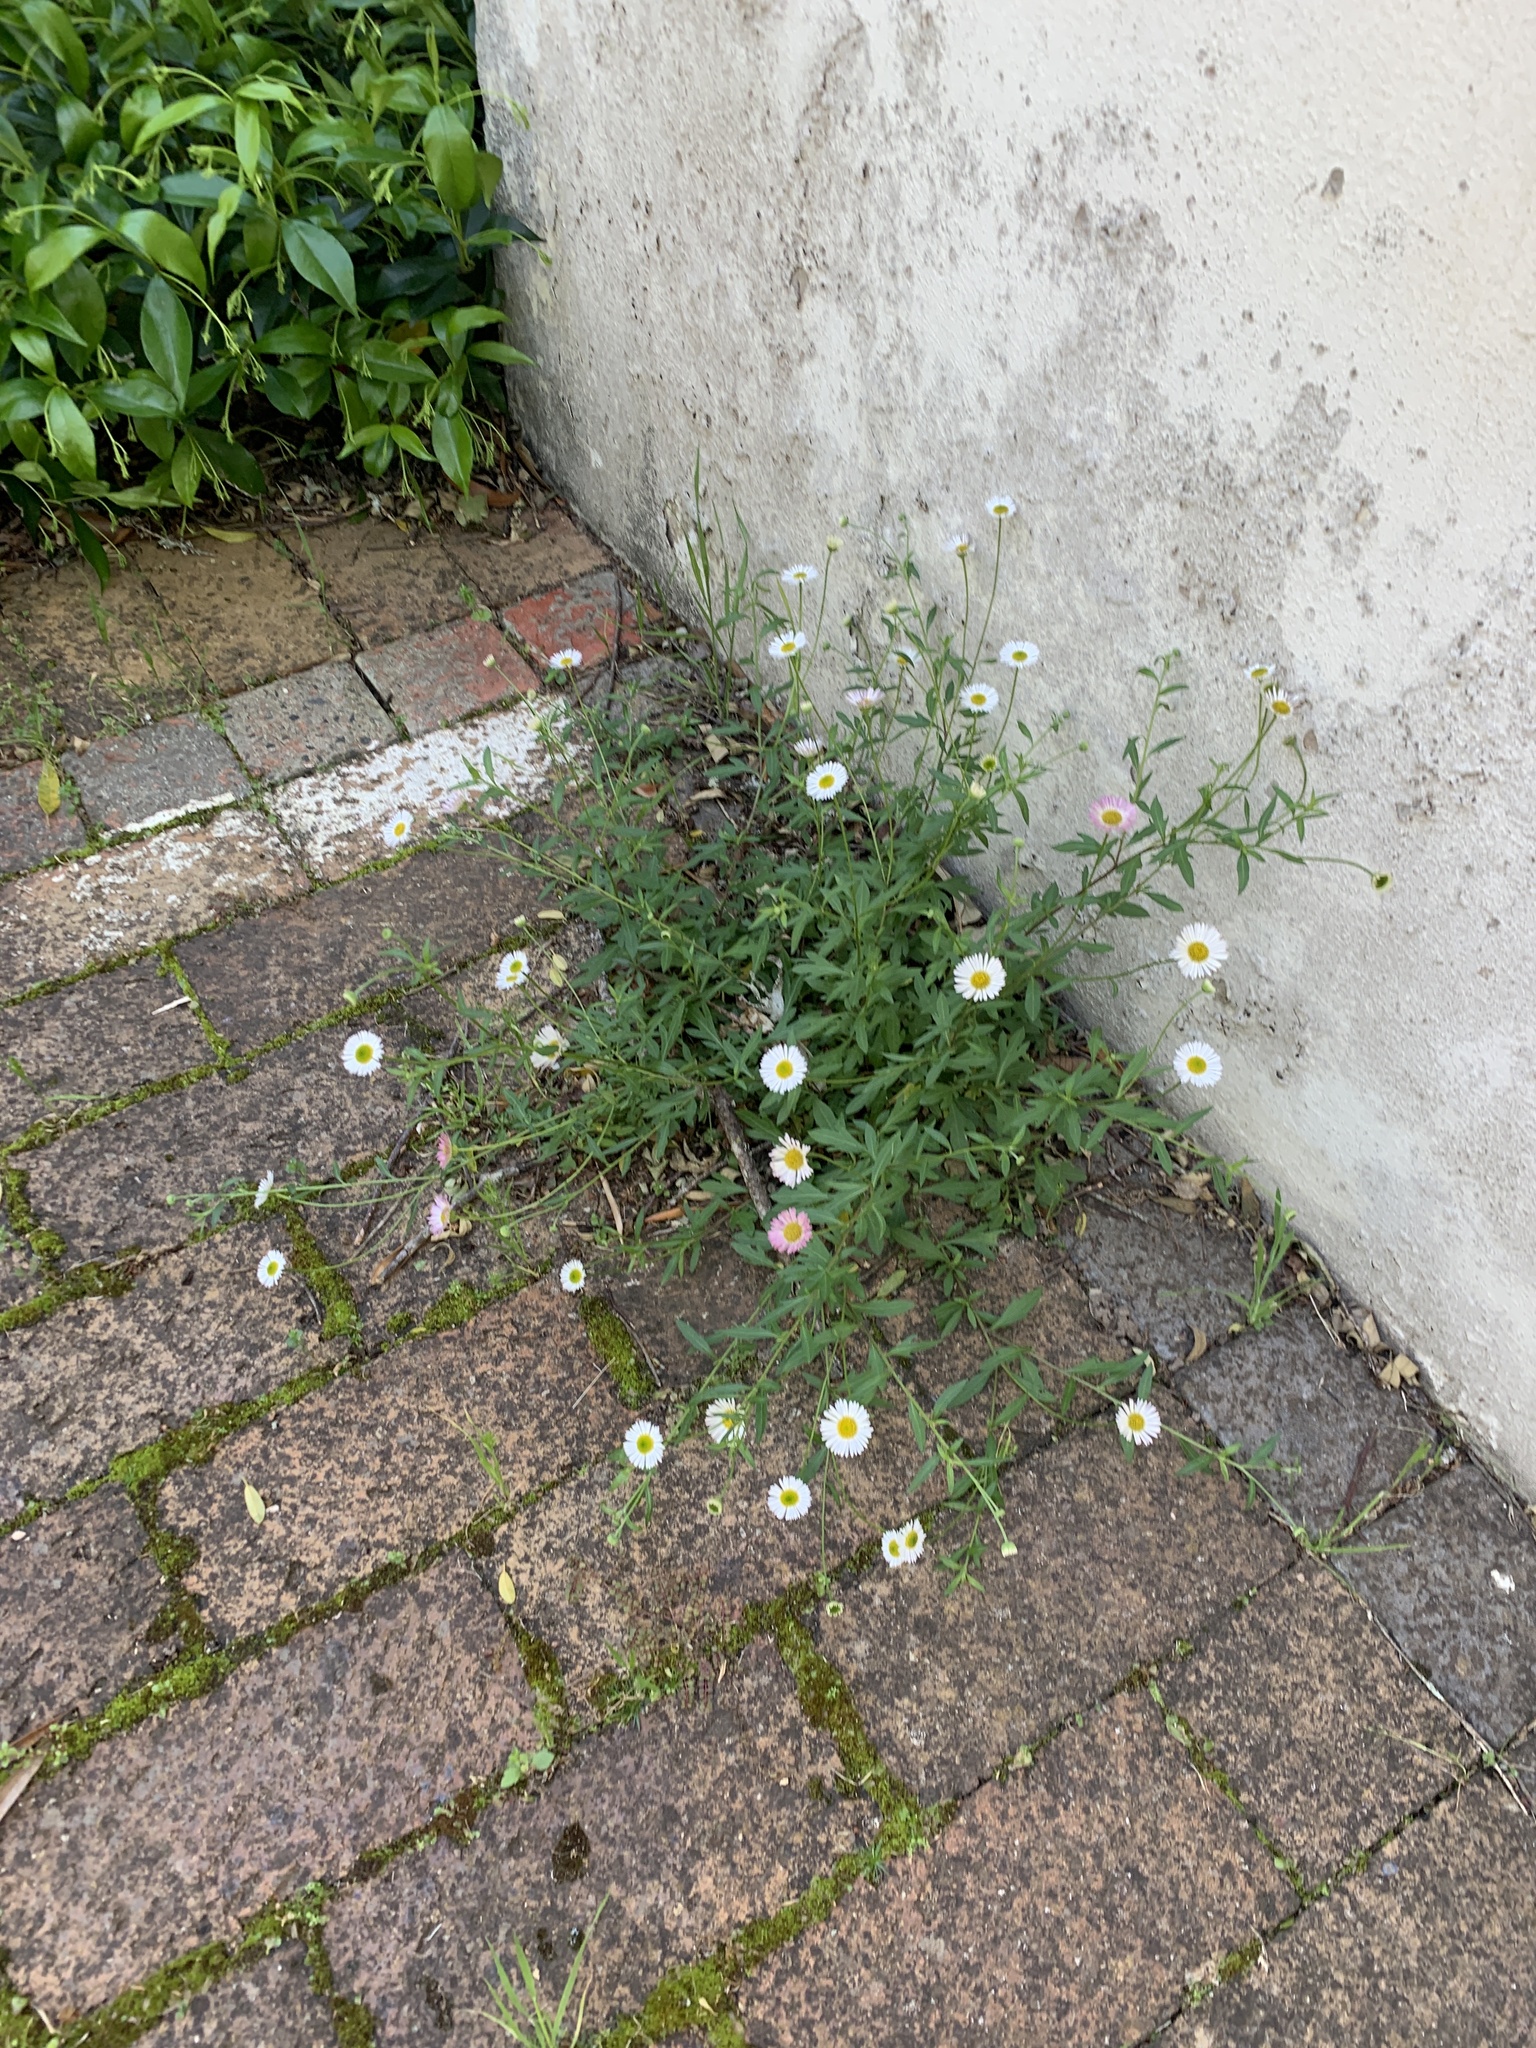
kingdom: Plantae
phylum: Tracheophyta
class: Magnoliopsida
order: Asterales
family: Asteraceae
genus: Erigeron
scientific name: Erigeron karvinskianus
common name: Mexican fleabane
